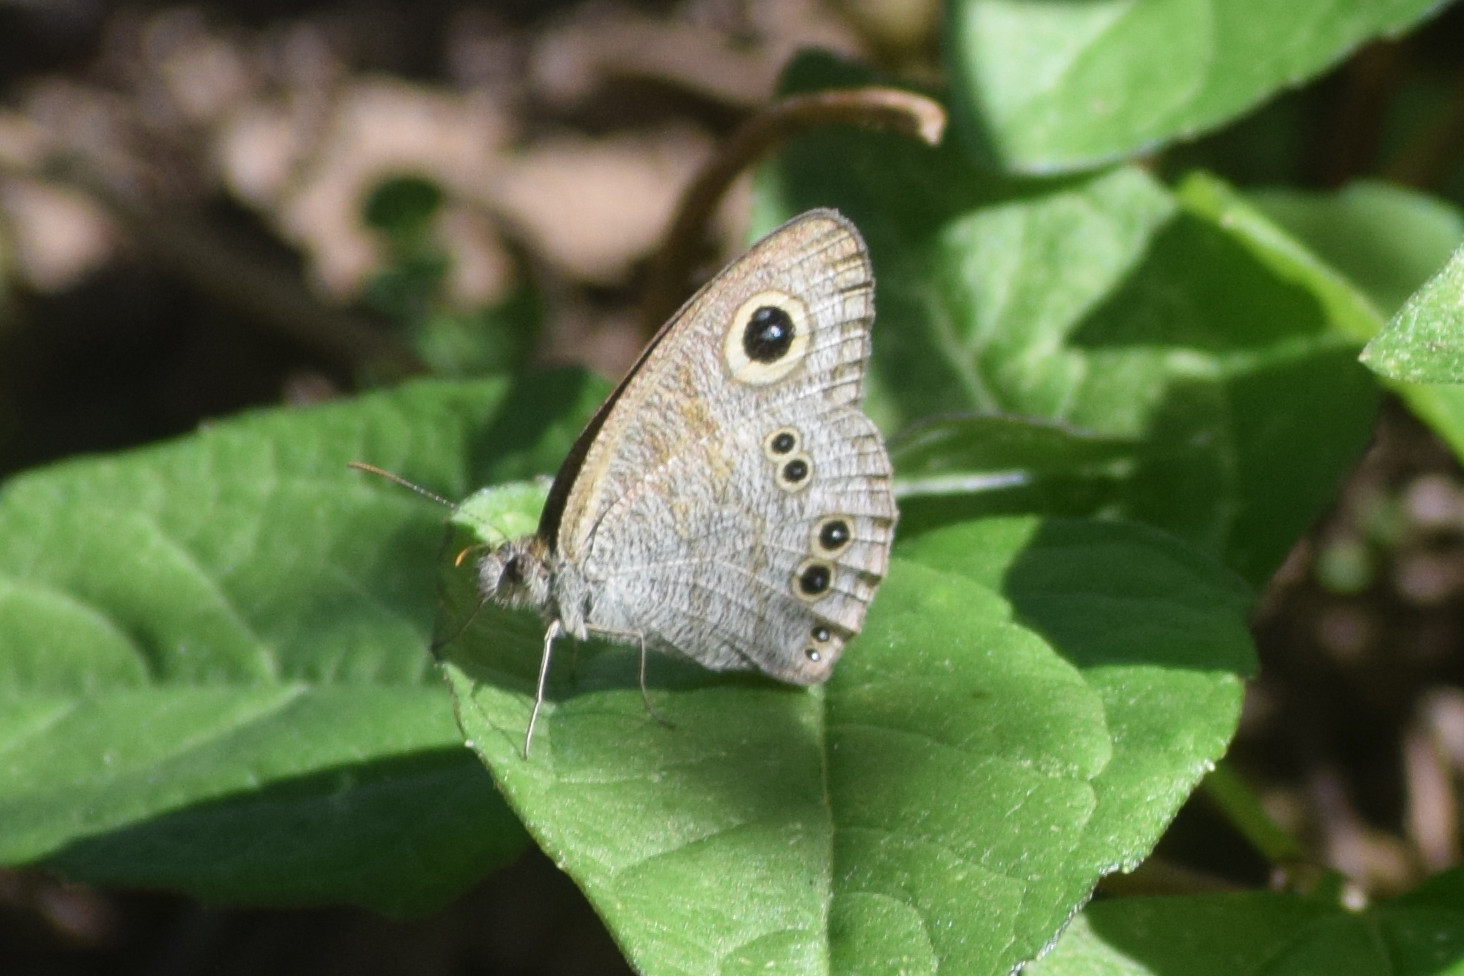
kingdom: Animalia
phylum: Arthropoda
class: Insecta
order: Lepidoptera
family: Nymphalidae
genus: Ypthima
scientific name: Ypthima baldus
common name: Common five-ring
